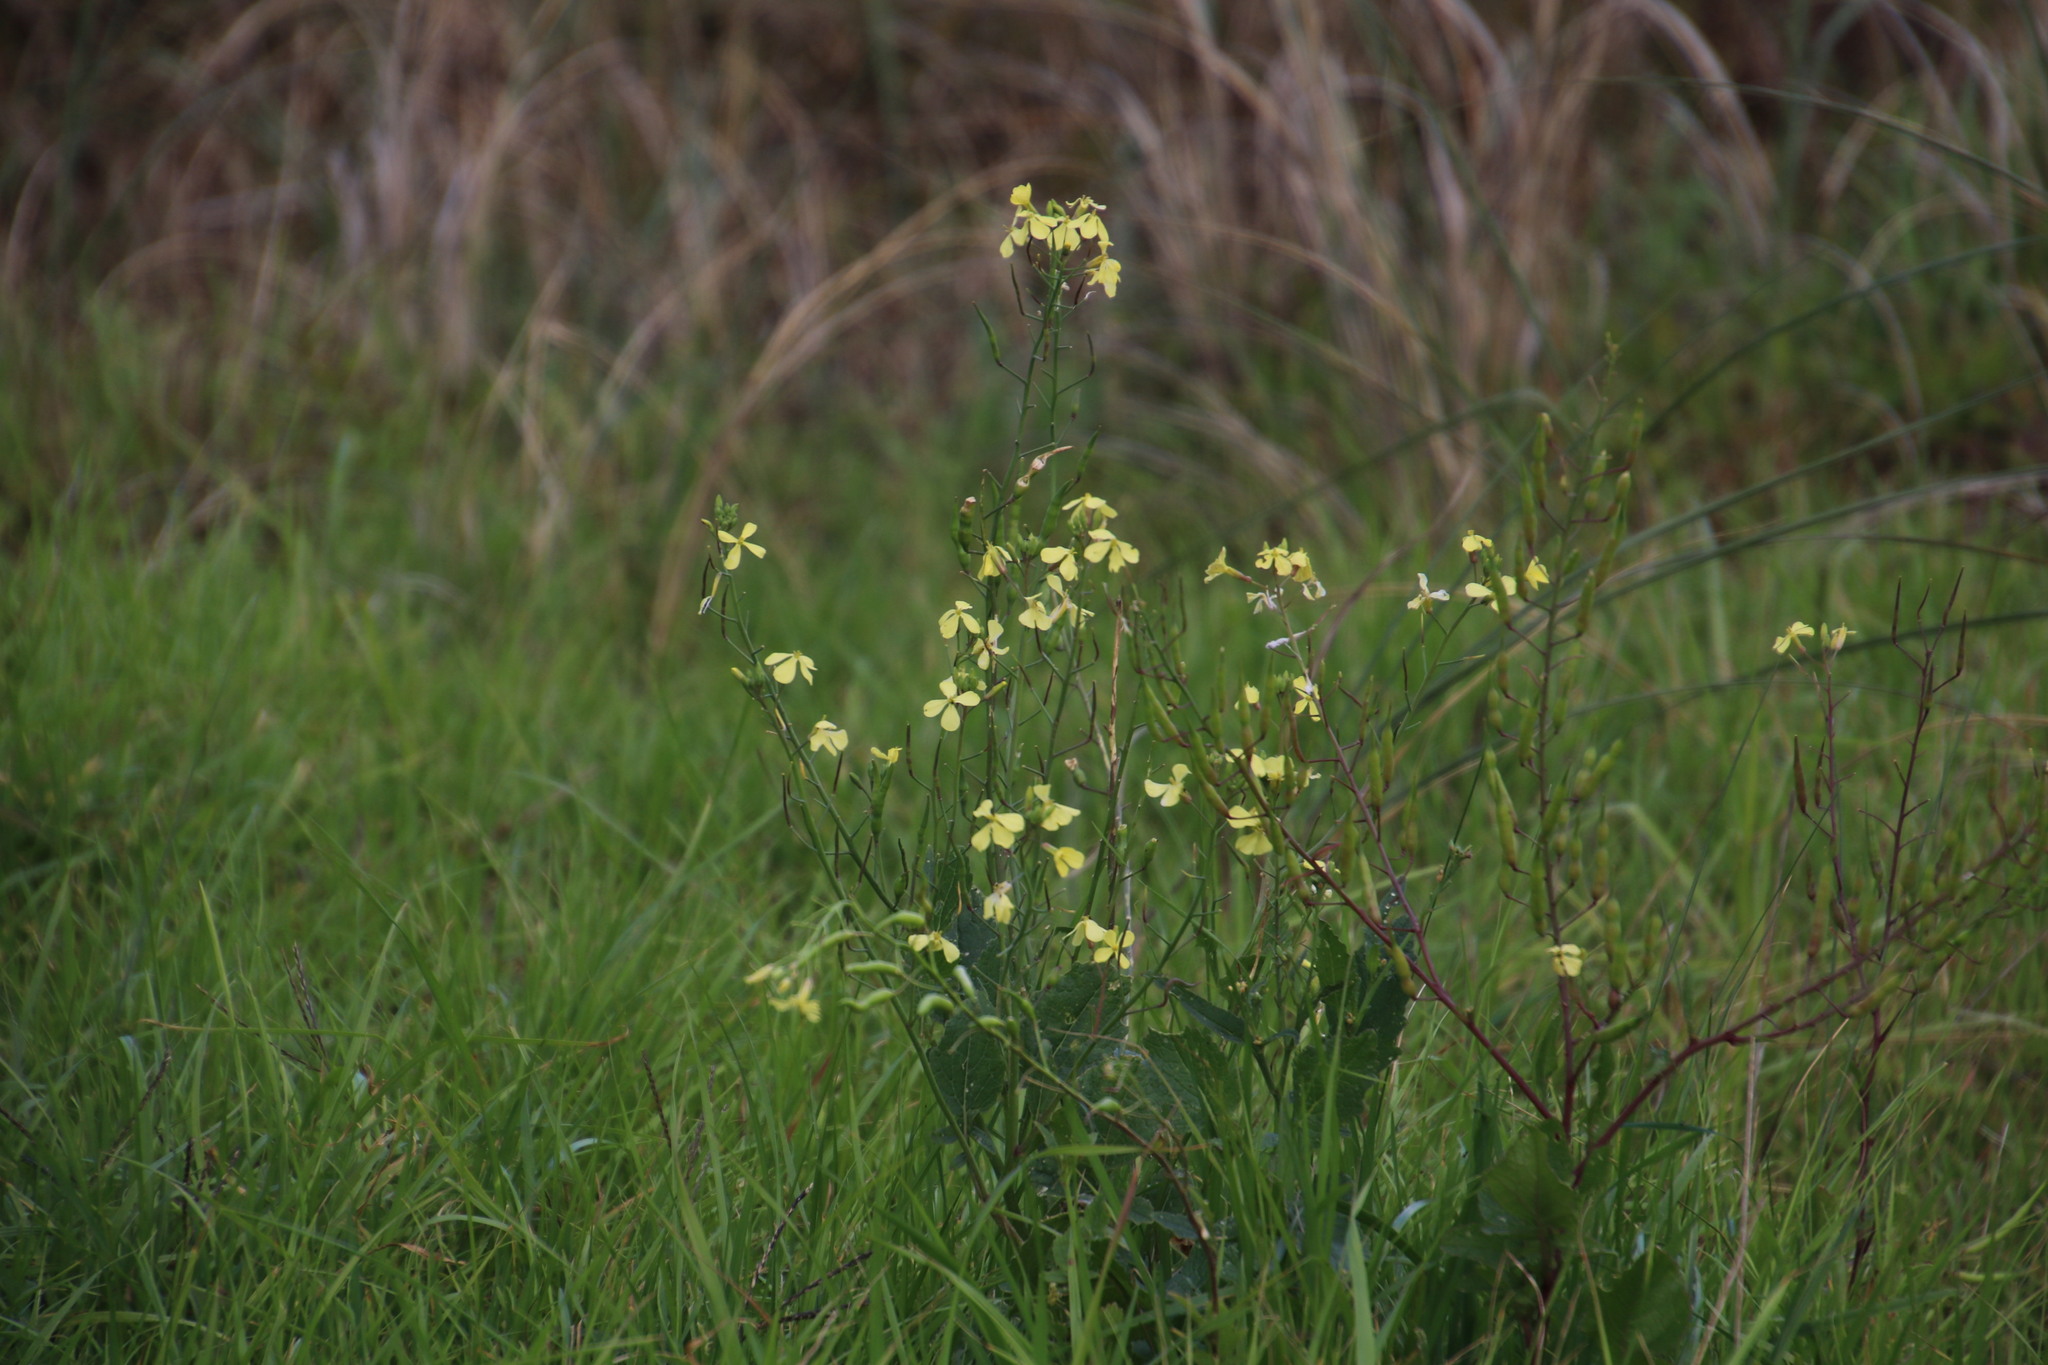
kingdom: Plantae
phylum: Tracheophyta
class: Magnoliopsida
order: Brassicales
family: Brassicaceae
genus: Raphanus
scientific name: Raphanus raphanistrum
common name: Wild radish
